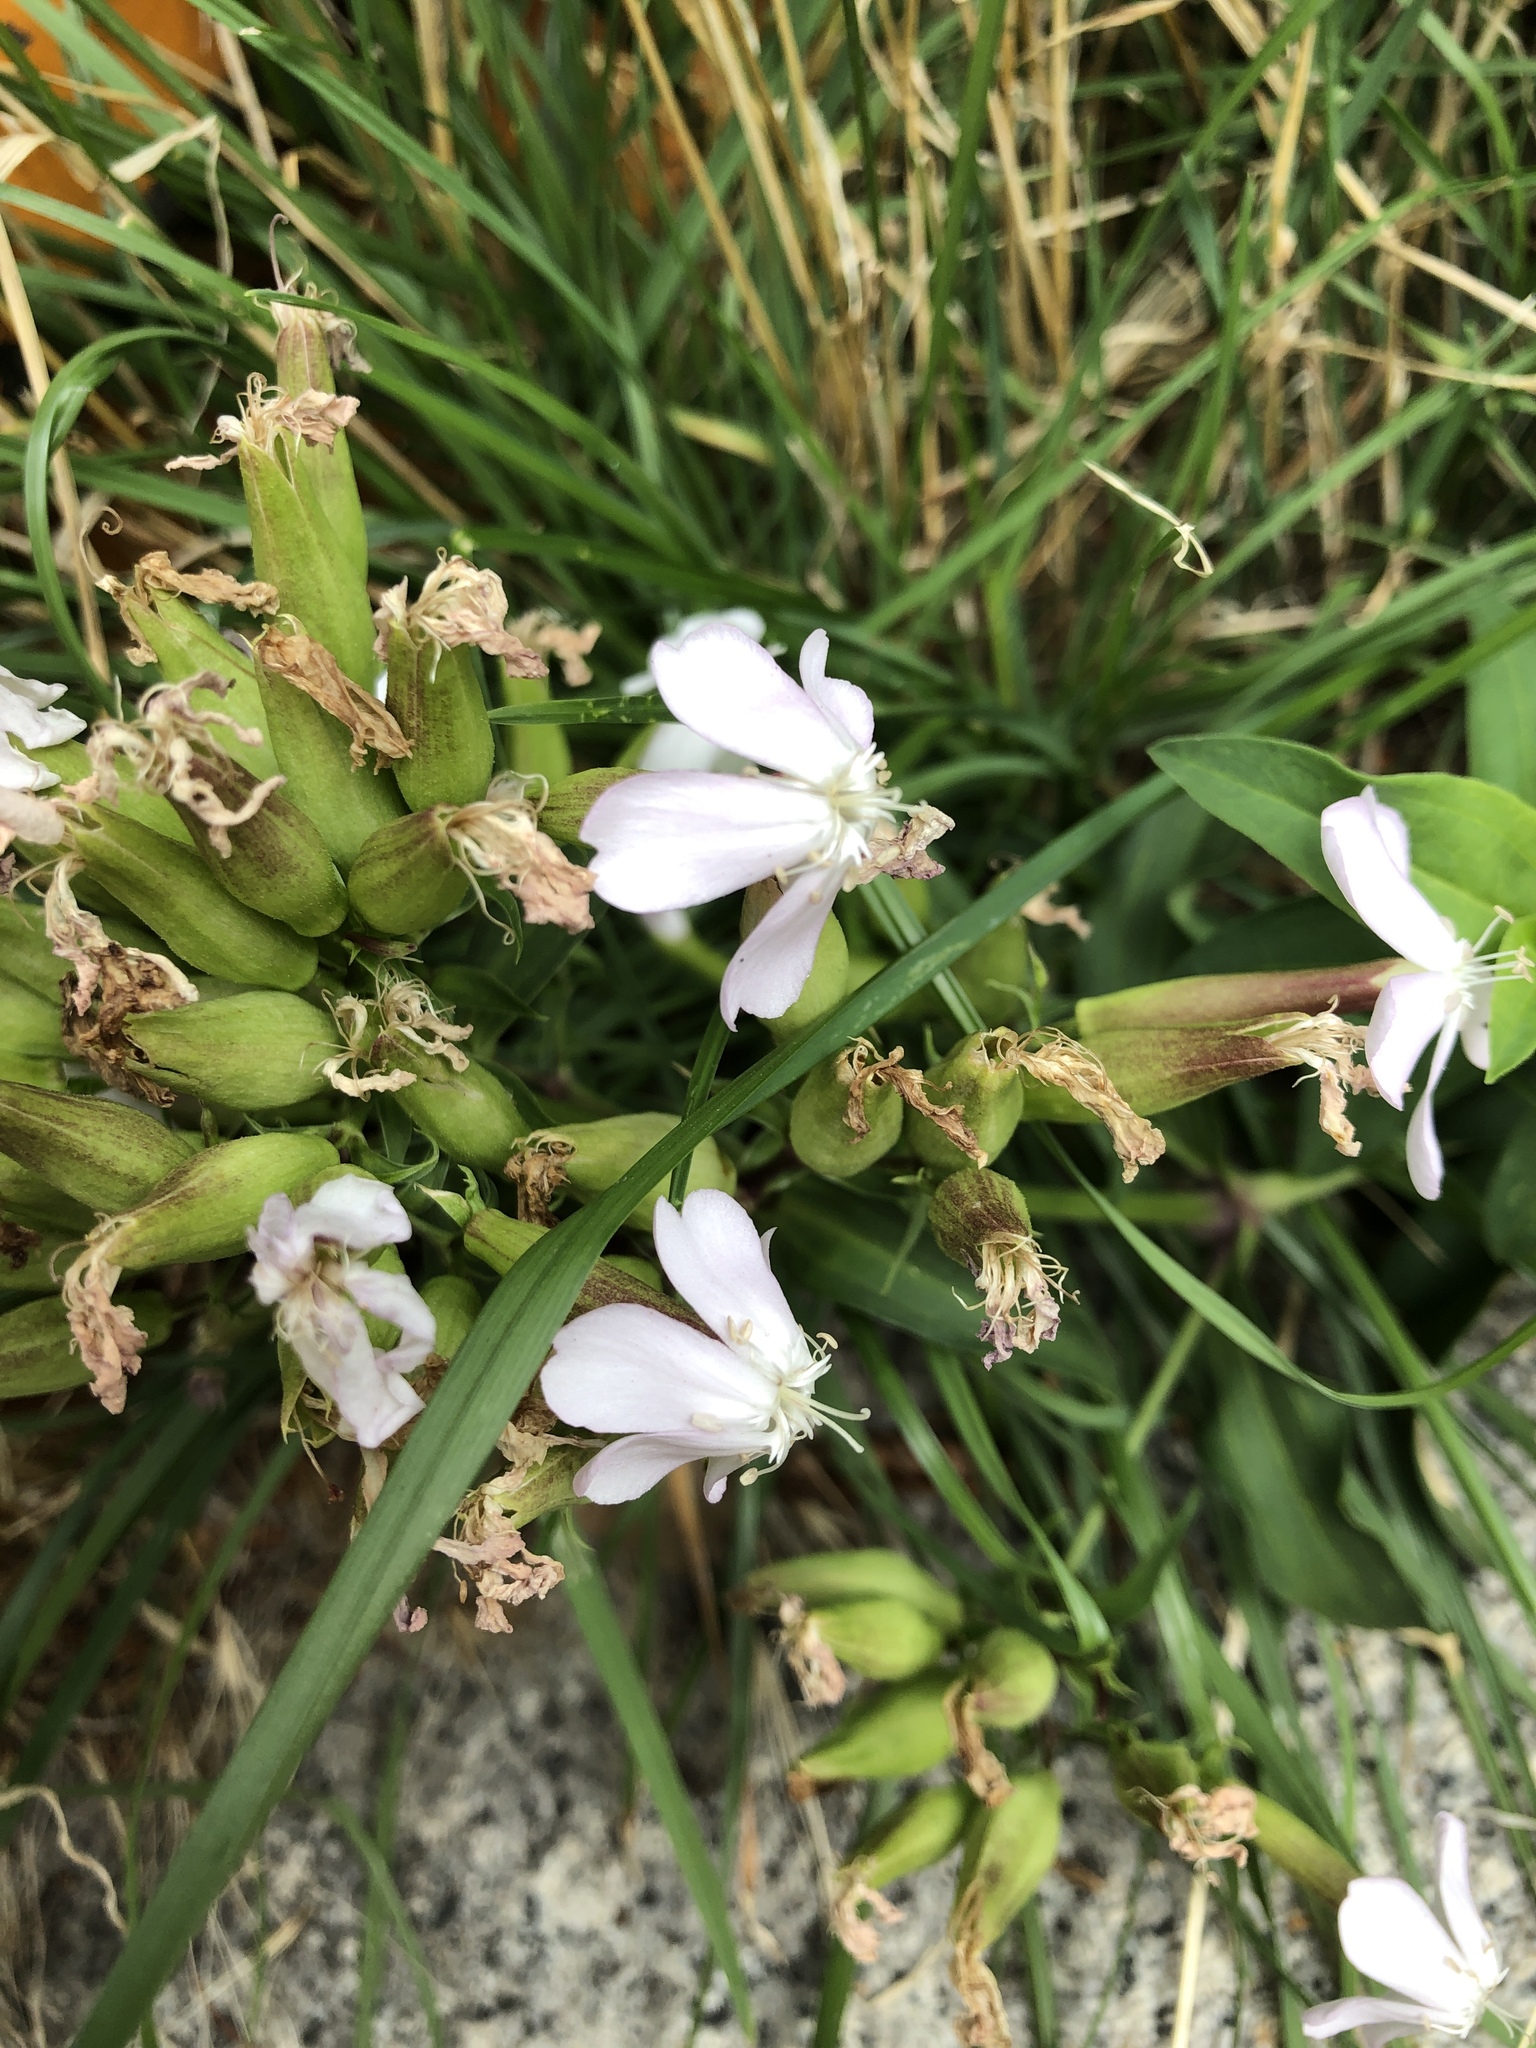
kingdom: Plantae
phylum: Tracheophyta
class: Magnoliopsida
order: Caryophyllales
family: Caryophyllaceae
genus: Saponaria
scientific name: Saponaria officinalis
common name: Soapwort
